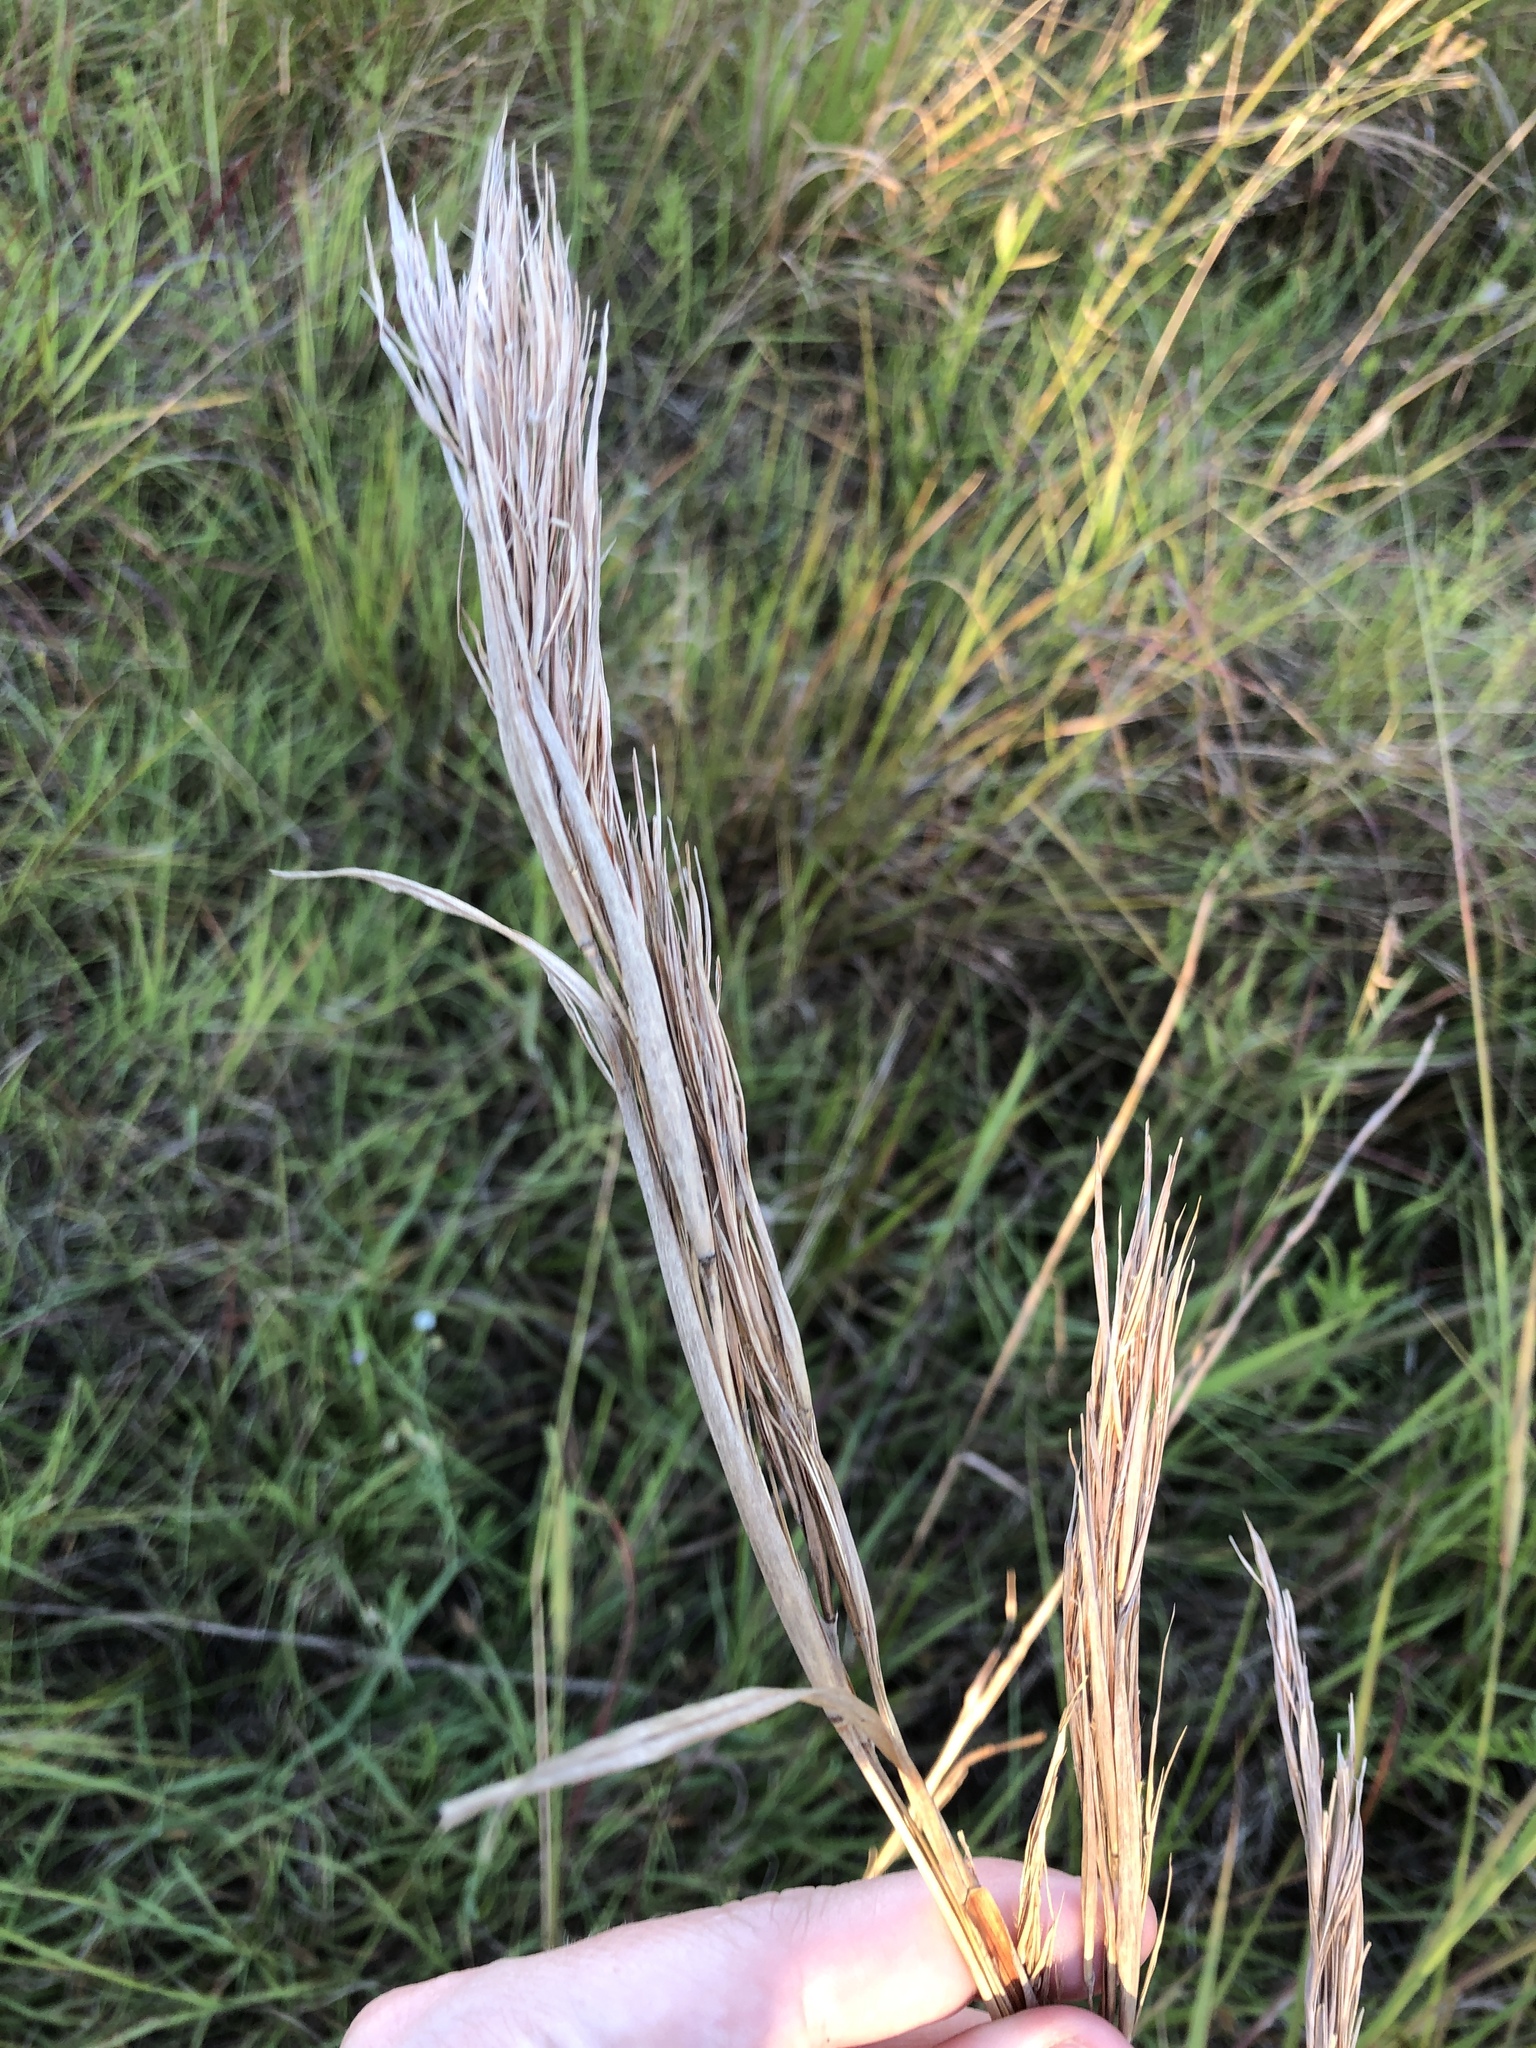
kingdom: Plantae
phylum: Tracheophyta
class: Liliopsida
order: Poales
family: Poaceae
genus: Andropogon
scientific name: Andropogon tenuispatheus
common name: Bushy bluestem
